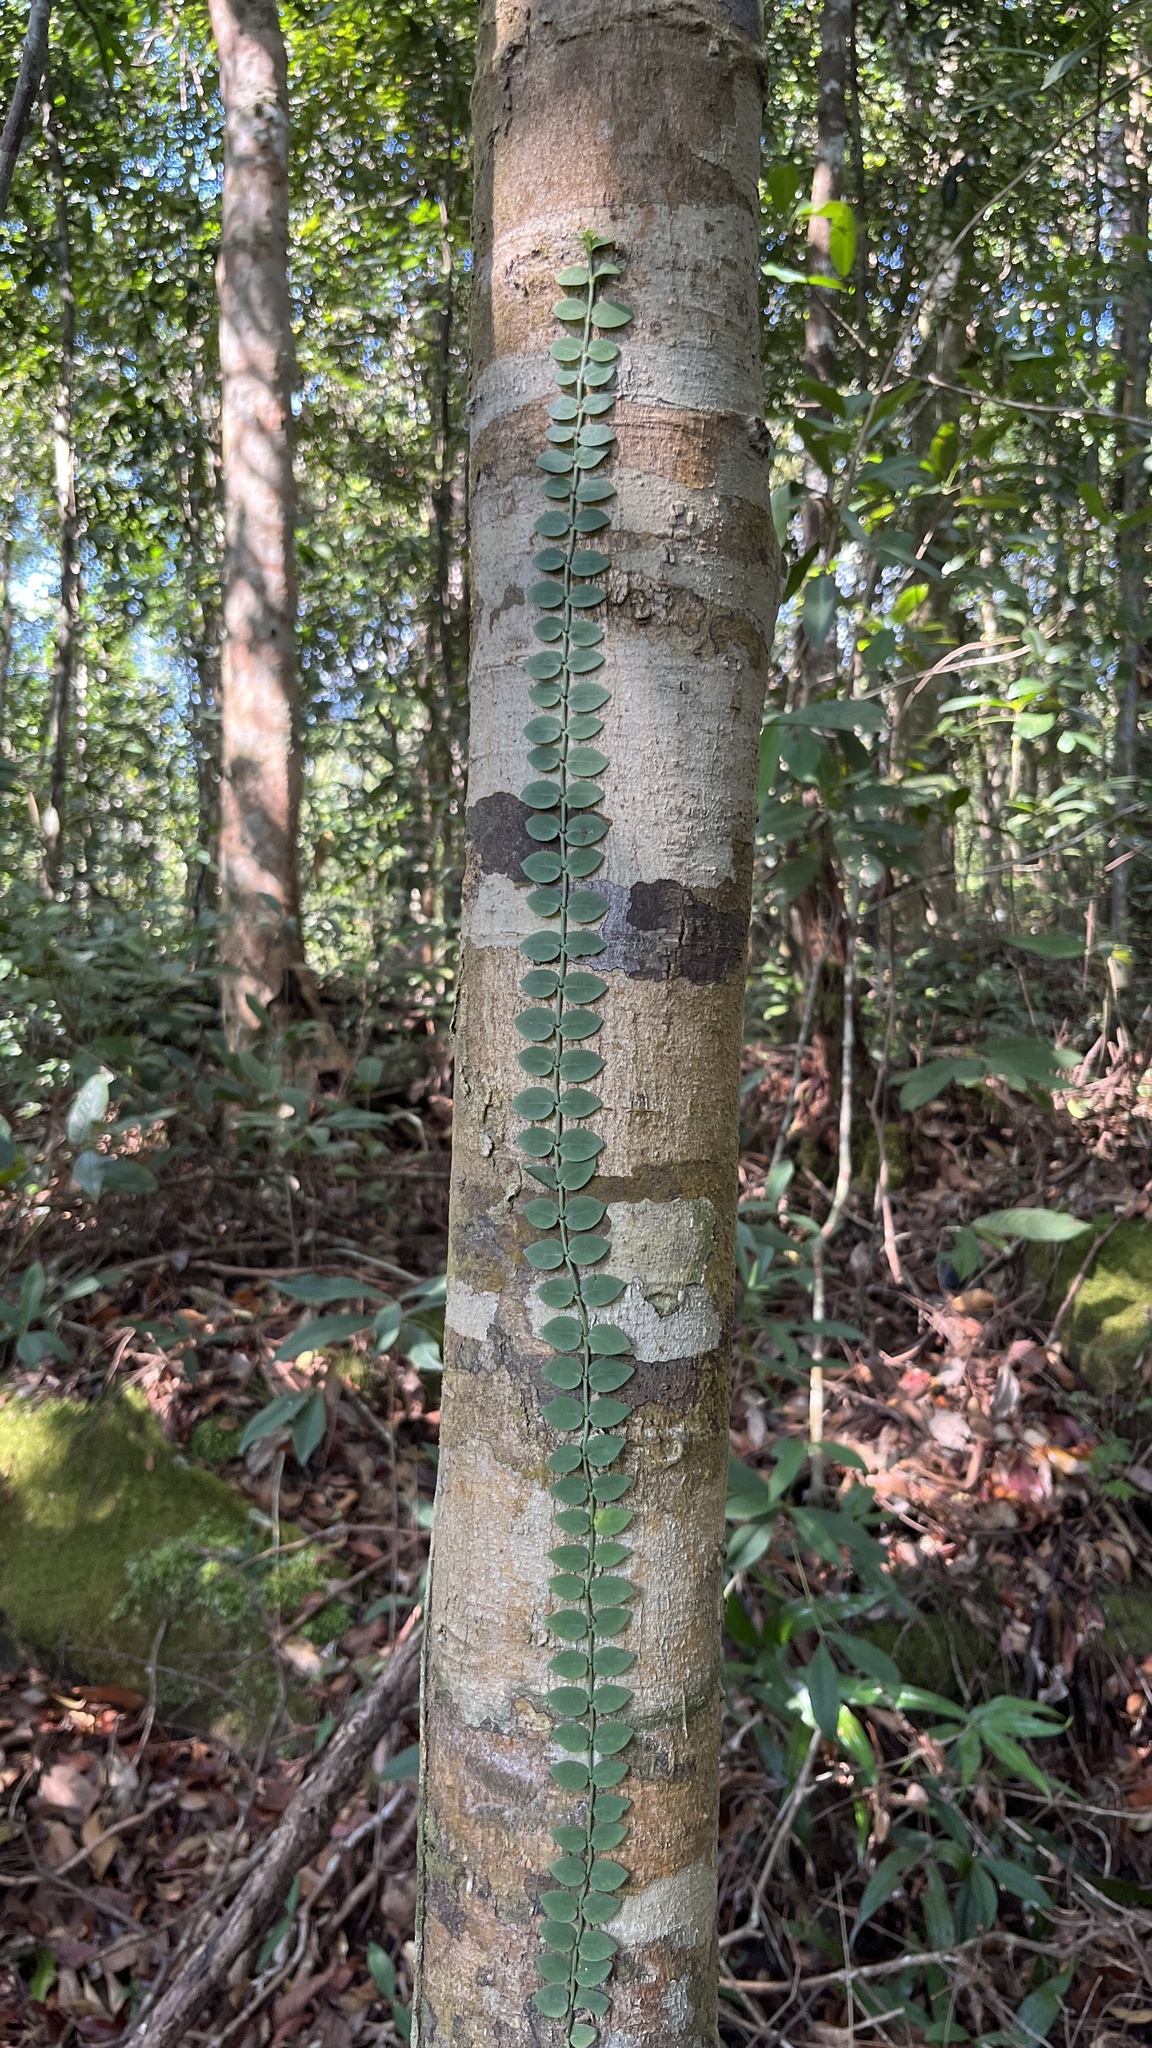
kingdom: Plantae
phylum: Tracheophyta
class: Magnoliopsida
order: Gentianales
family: Rubiaceae
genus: Psychotria
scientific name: Psychotria serpens
